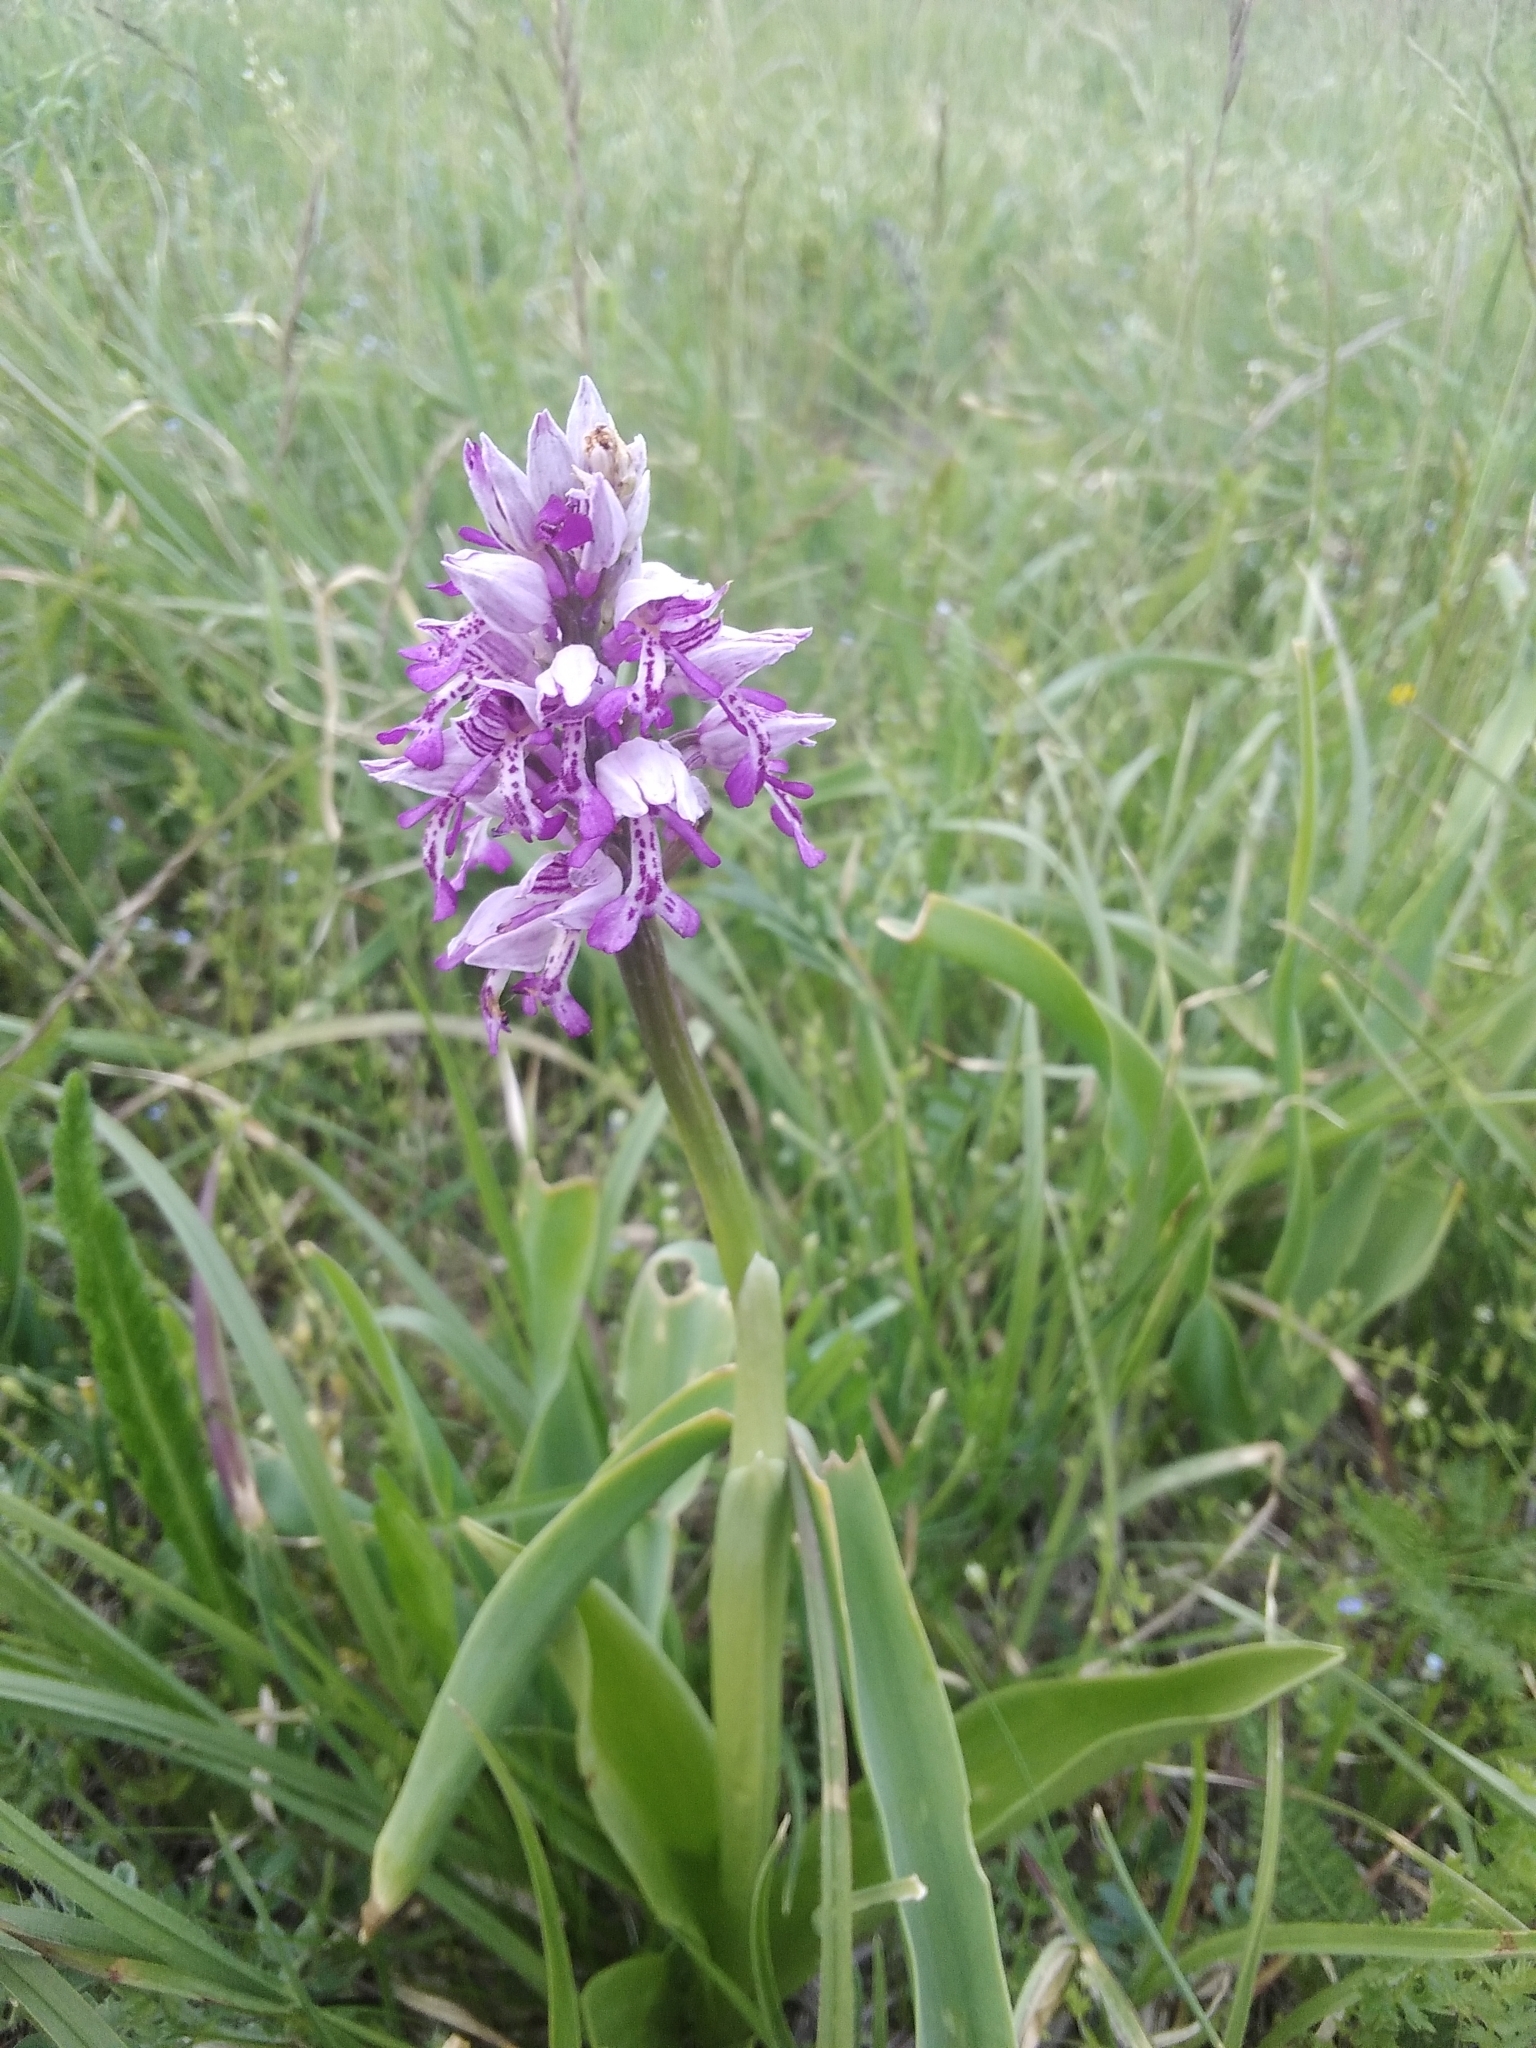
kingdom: Plantae
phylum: Tracheophyta
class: Liliopsida
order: Asparagales
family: Orchidaceae
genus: Orchis
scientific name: Orchis militaris
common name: Military orchid
